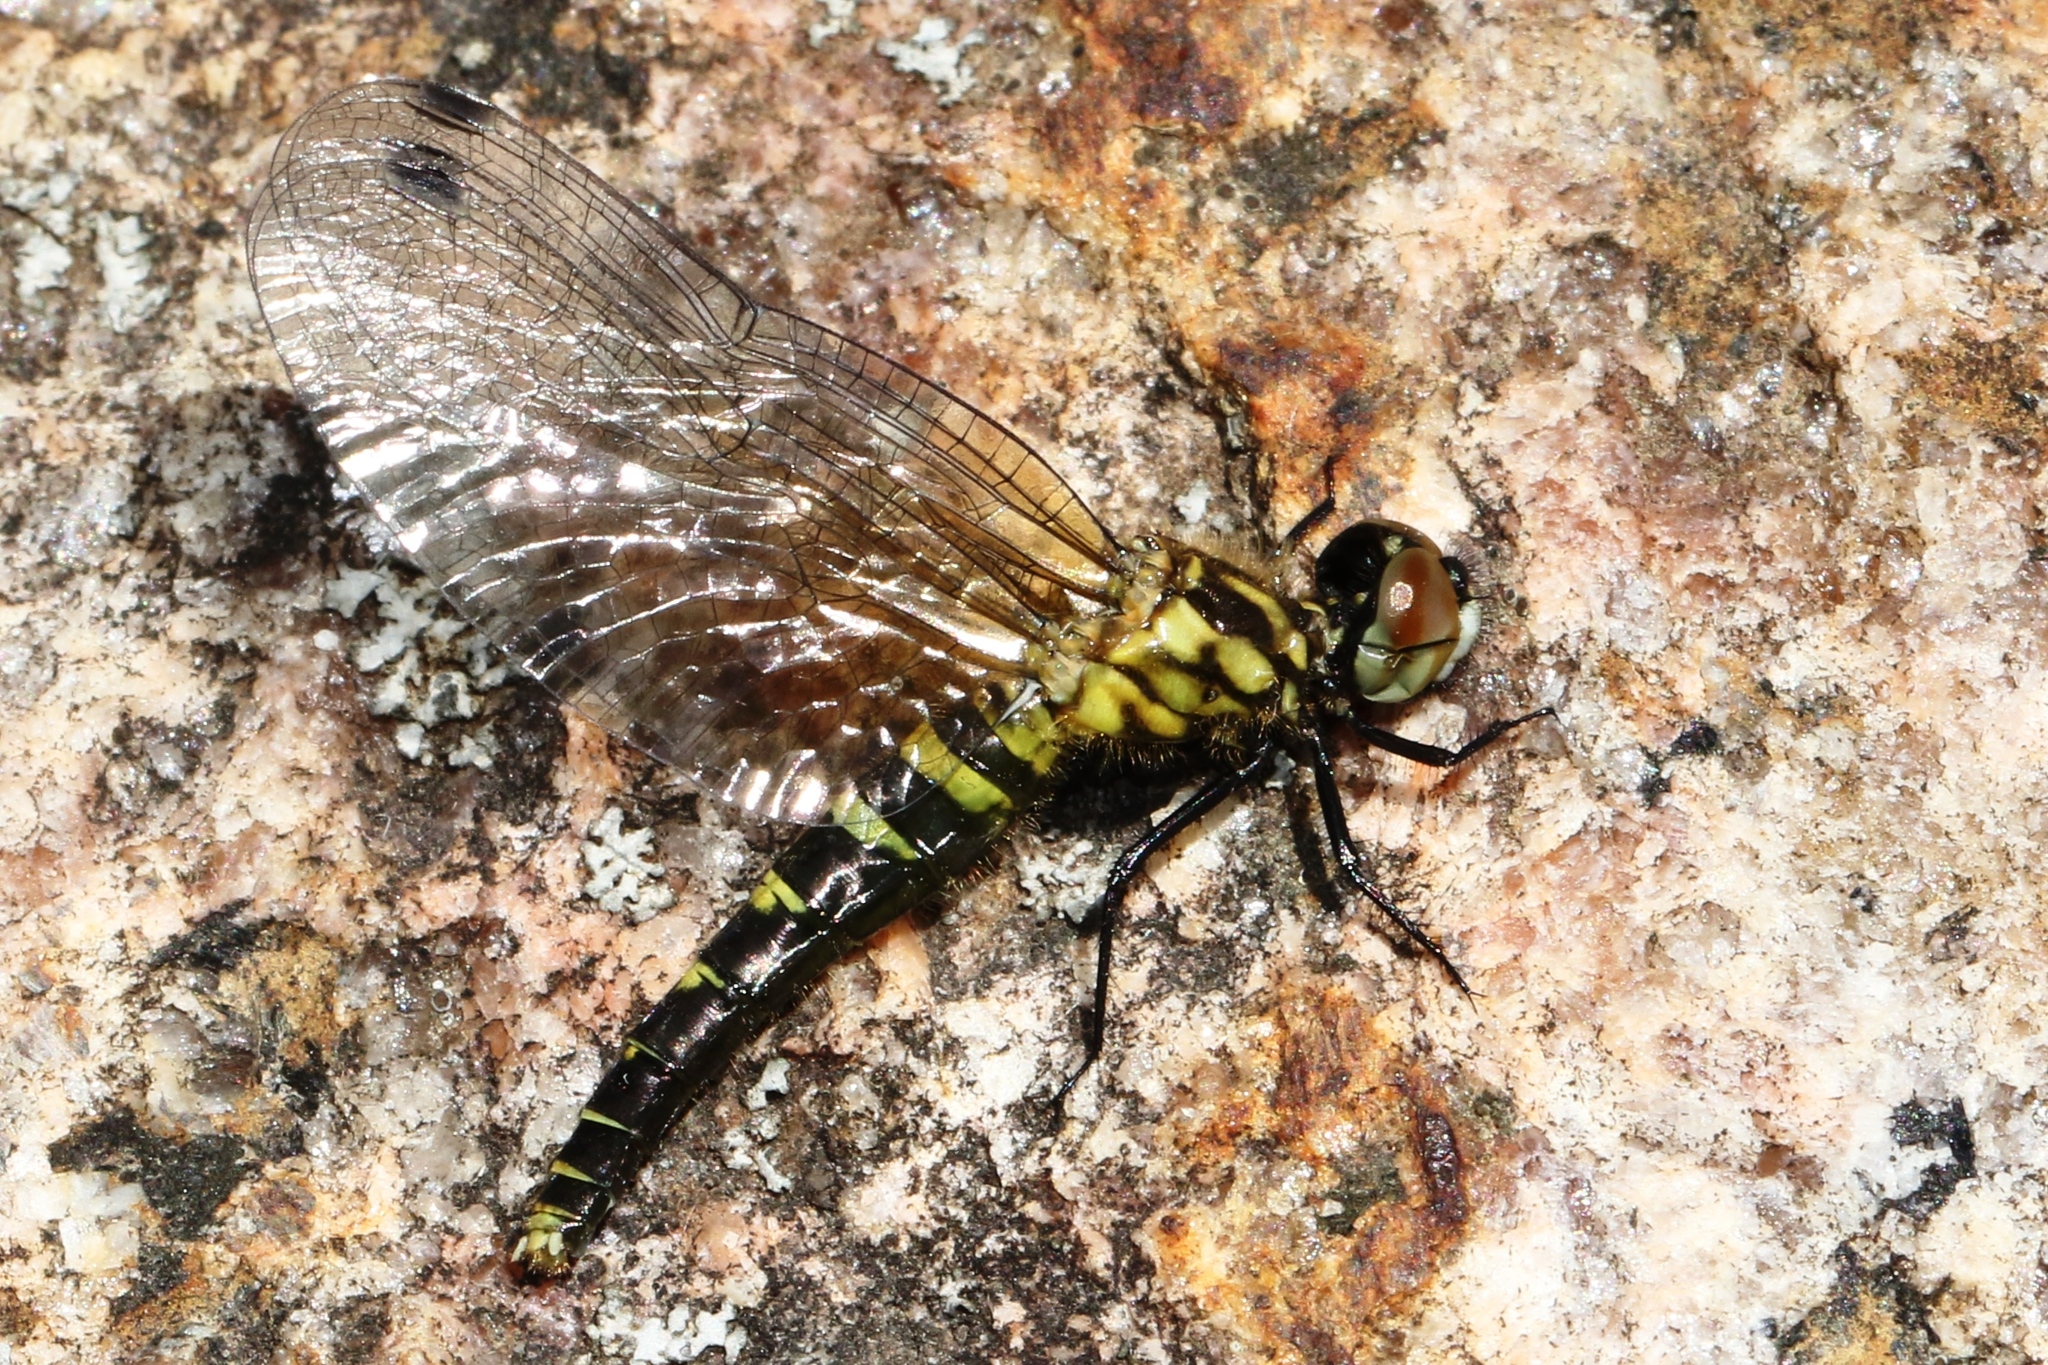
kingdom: Animalia
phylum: Arthropoda
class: Insecta
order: Odonata
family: Libellulidae
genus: Nannothemis
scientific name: Nannothemis bella
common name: Elfin skimmer
